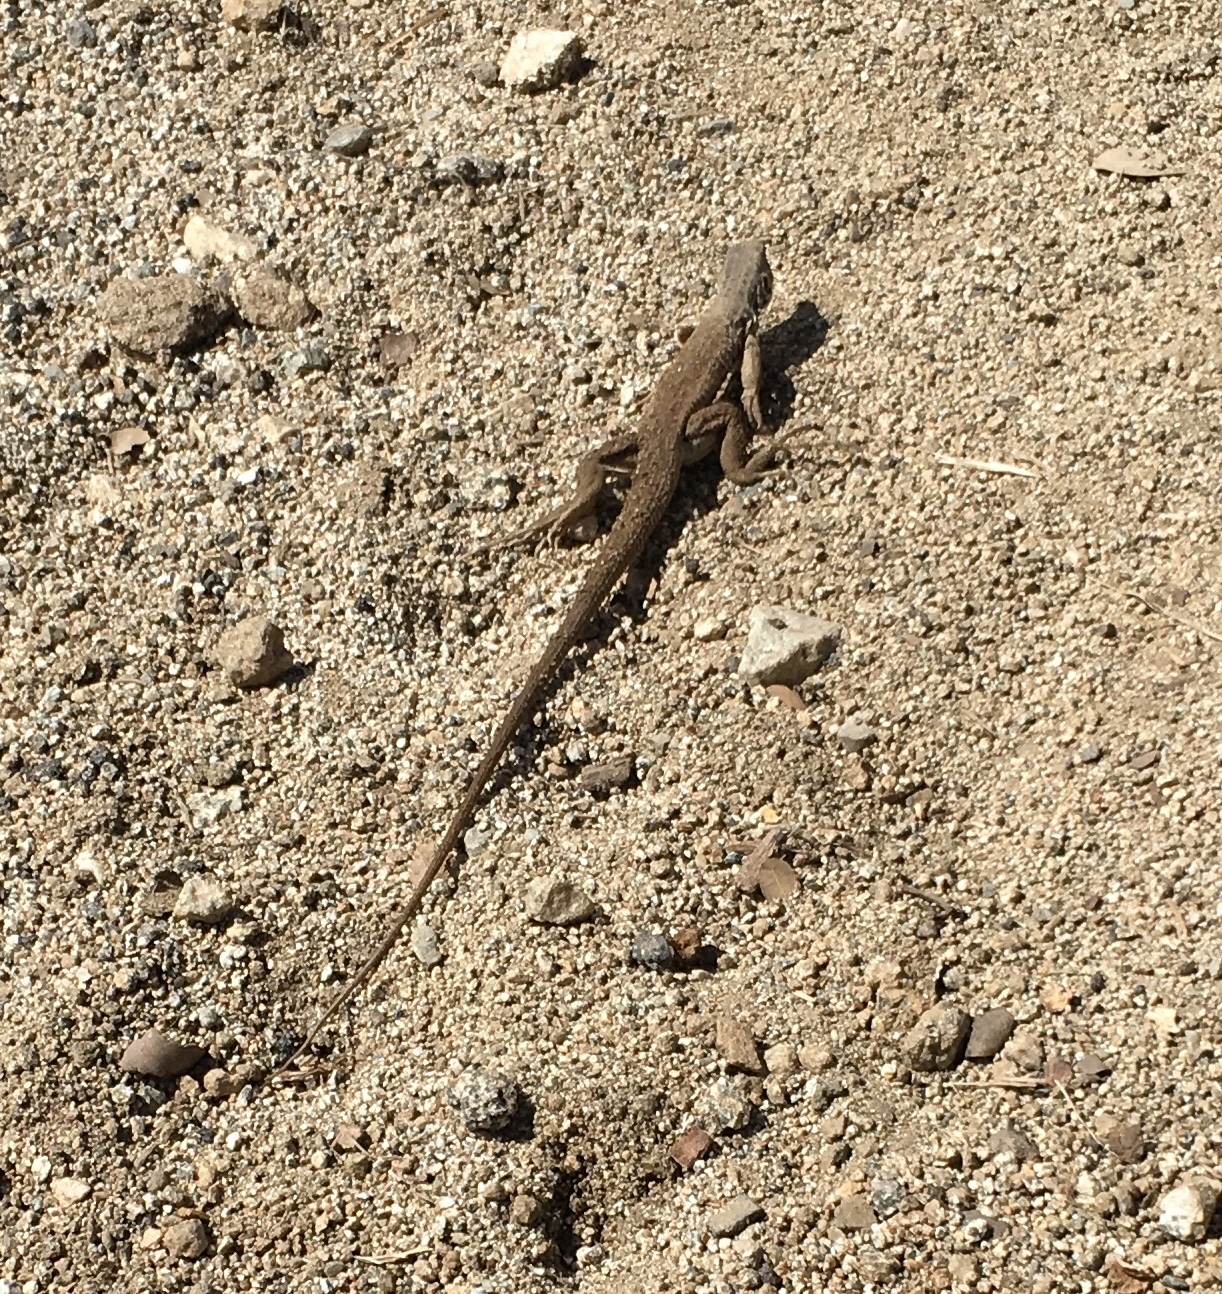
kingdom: Animalia
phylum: Chordata
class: Squamata
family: Teiidae
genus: Aspidoscelis
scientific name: Aspidoscelis tigris
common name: Tiger whiptail
